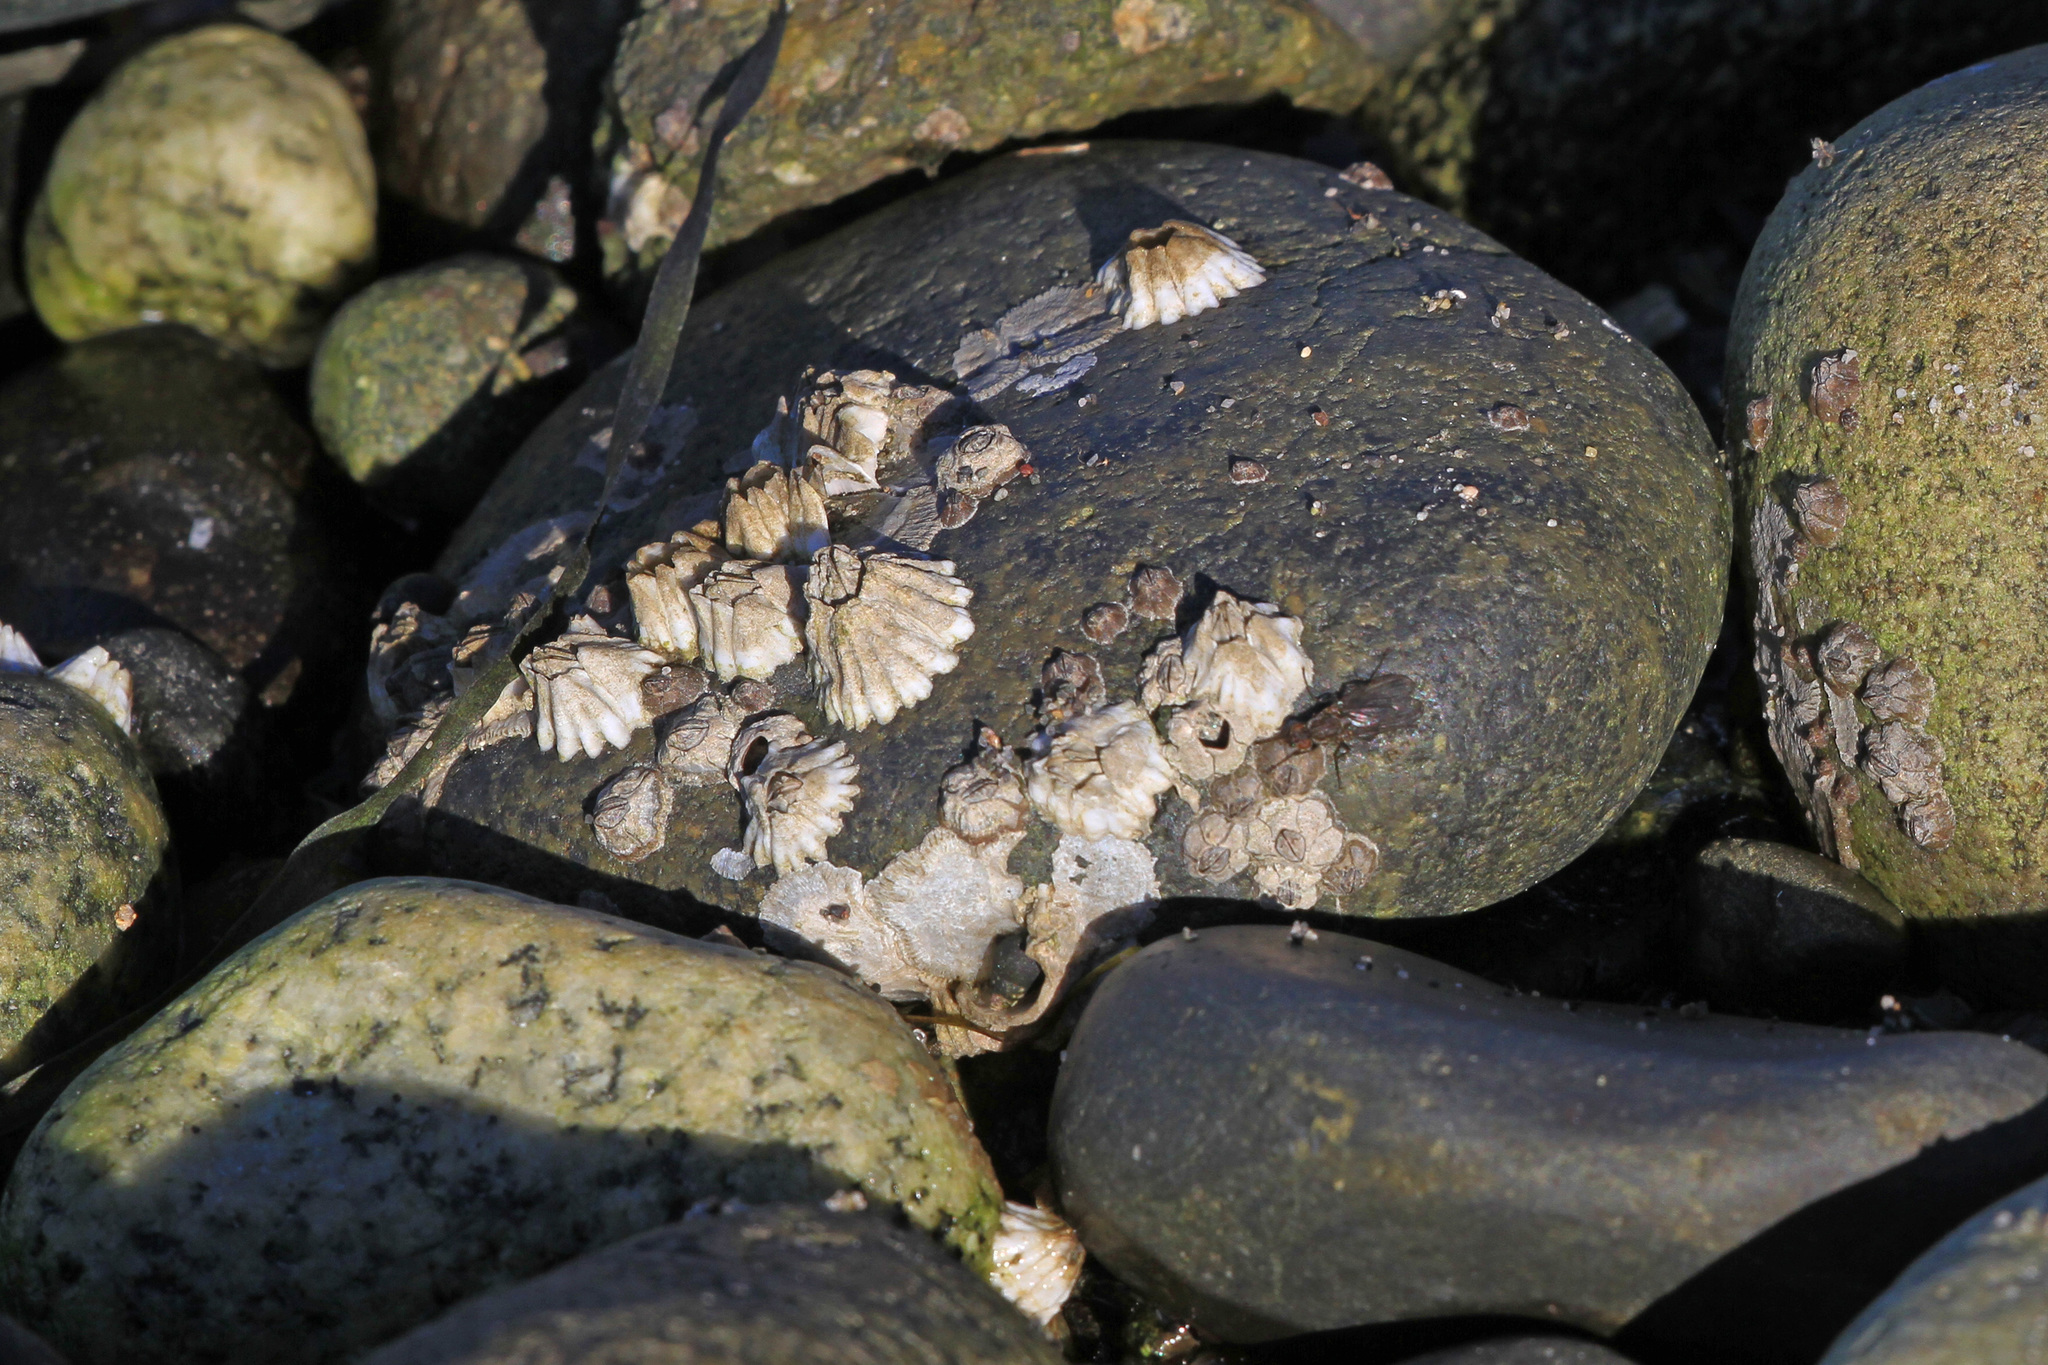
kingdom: Animalia
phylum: Arthropoda
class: Maxillopoda
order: Sessilia
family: Balanidae
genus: Balanus
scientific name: Balanus glandula
